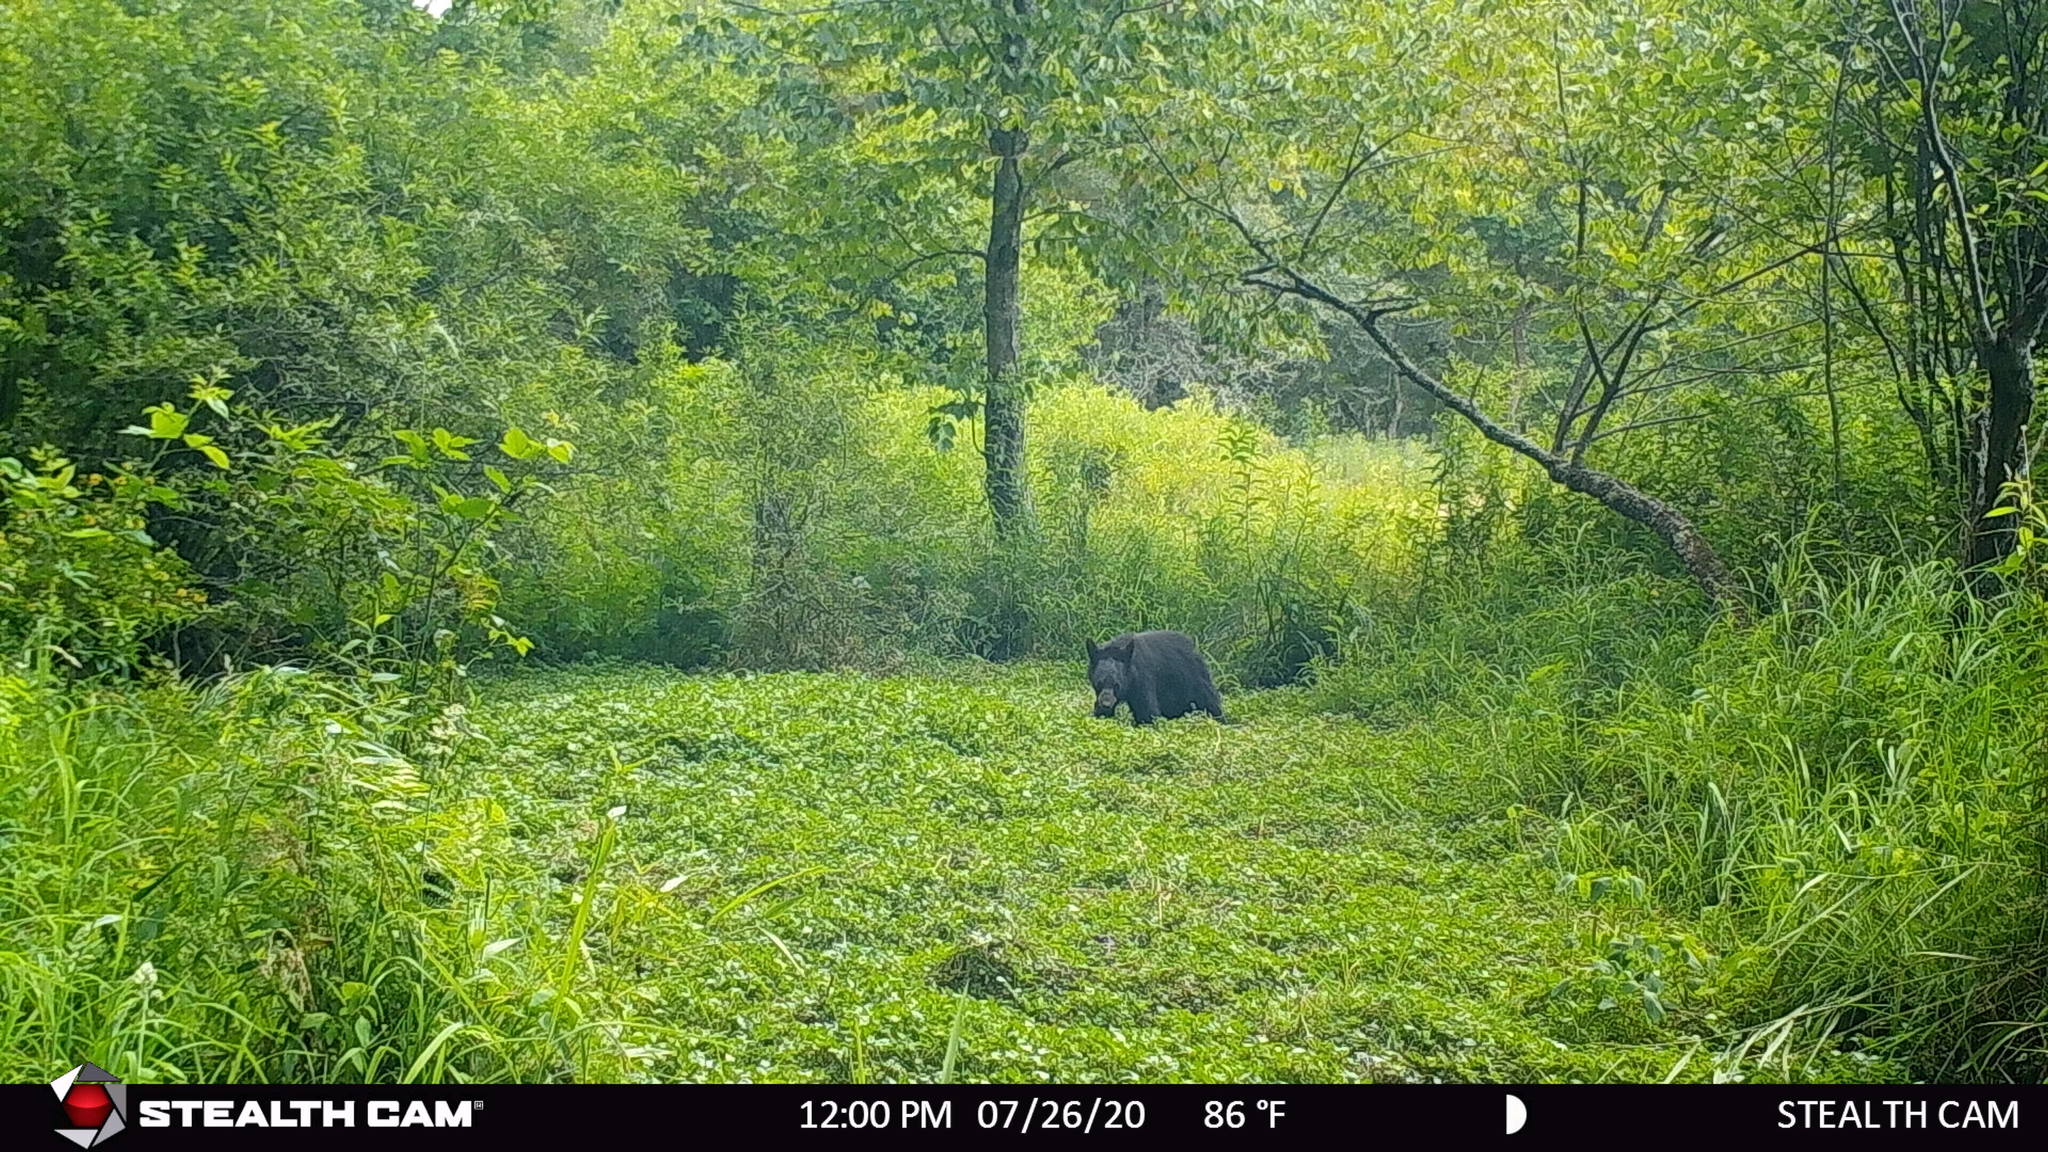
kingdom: Animalia
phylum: Chordata
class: Mammalia
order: Carnivora
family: Ursidae
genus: Ursus
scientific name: Ursus americanus
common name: American black bear
